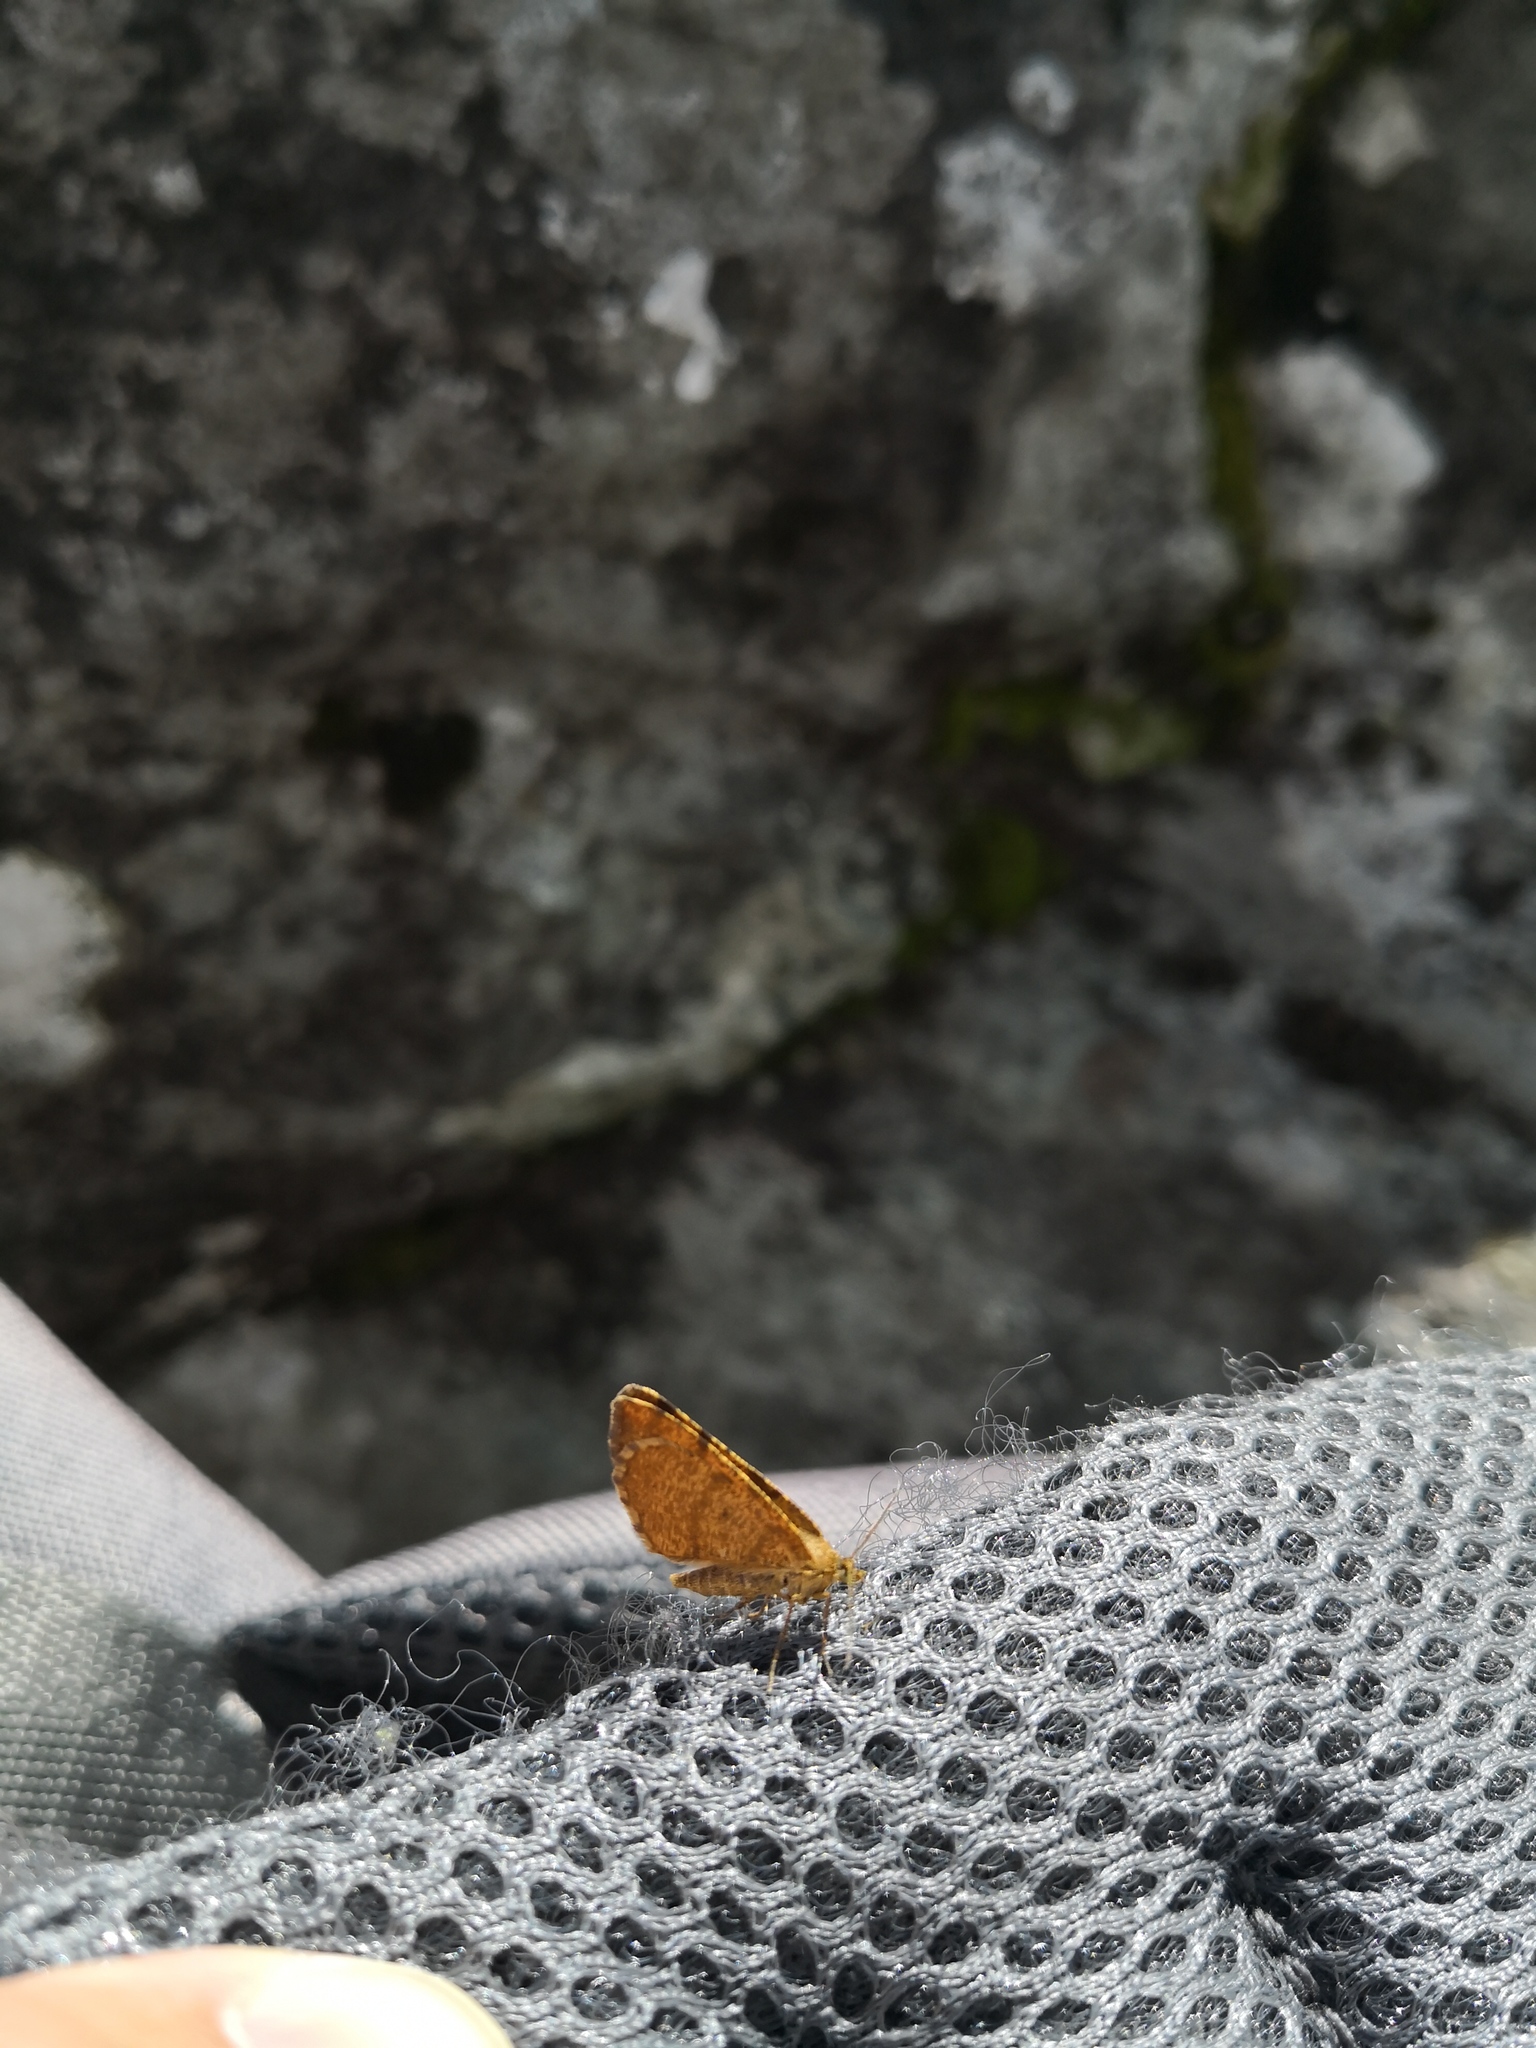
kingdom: Animalia
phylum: Arthropoda
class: Insecta
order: Lepidoptera
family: Geometridae
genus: Macaria
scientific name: Macaria brunneata
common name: Rannoch looper
